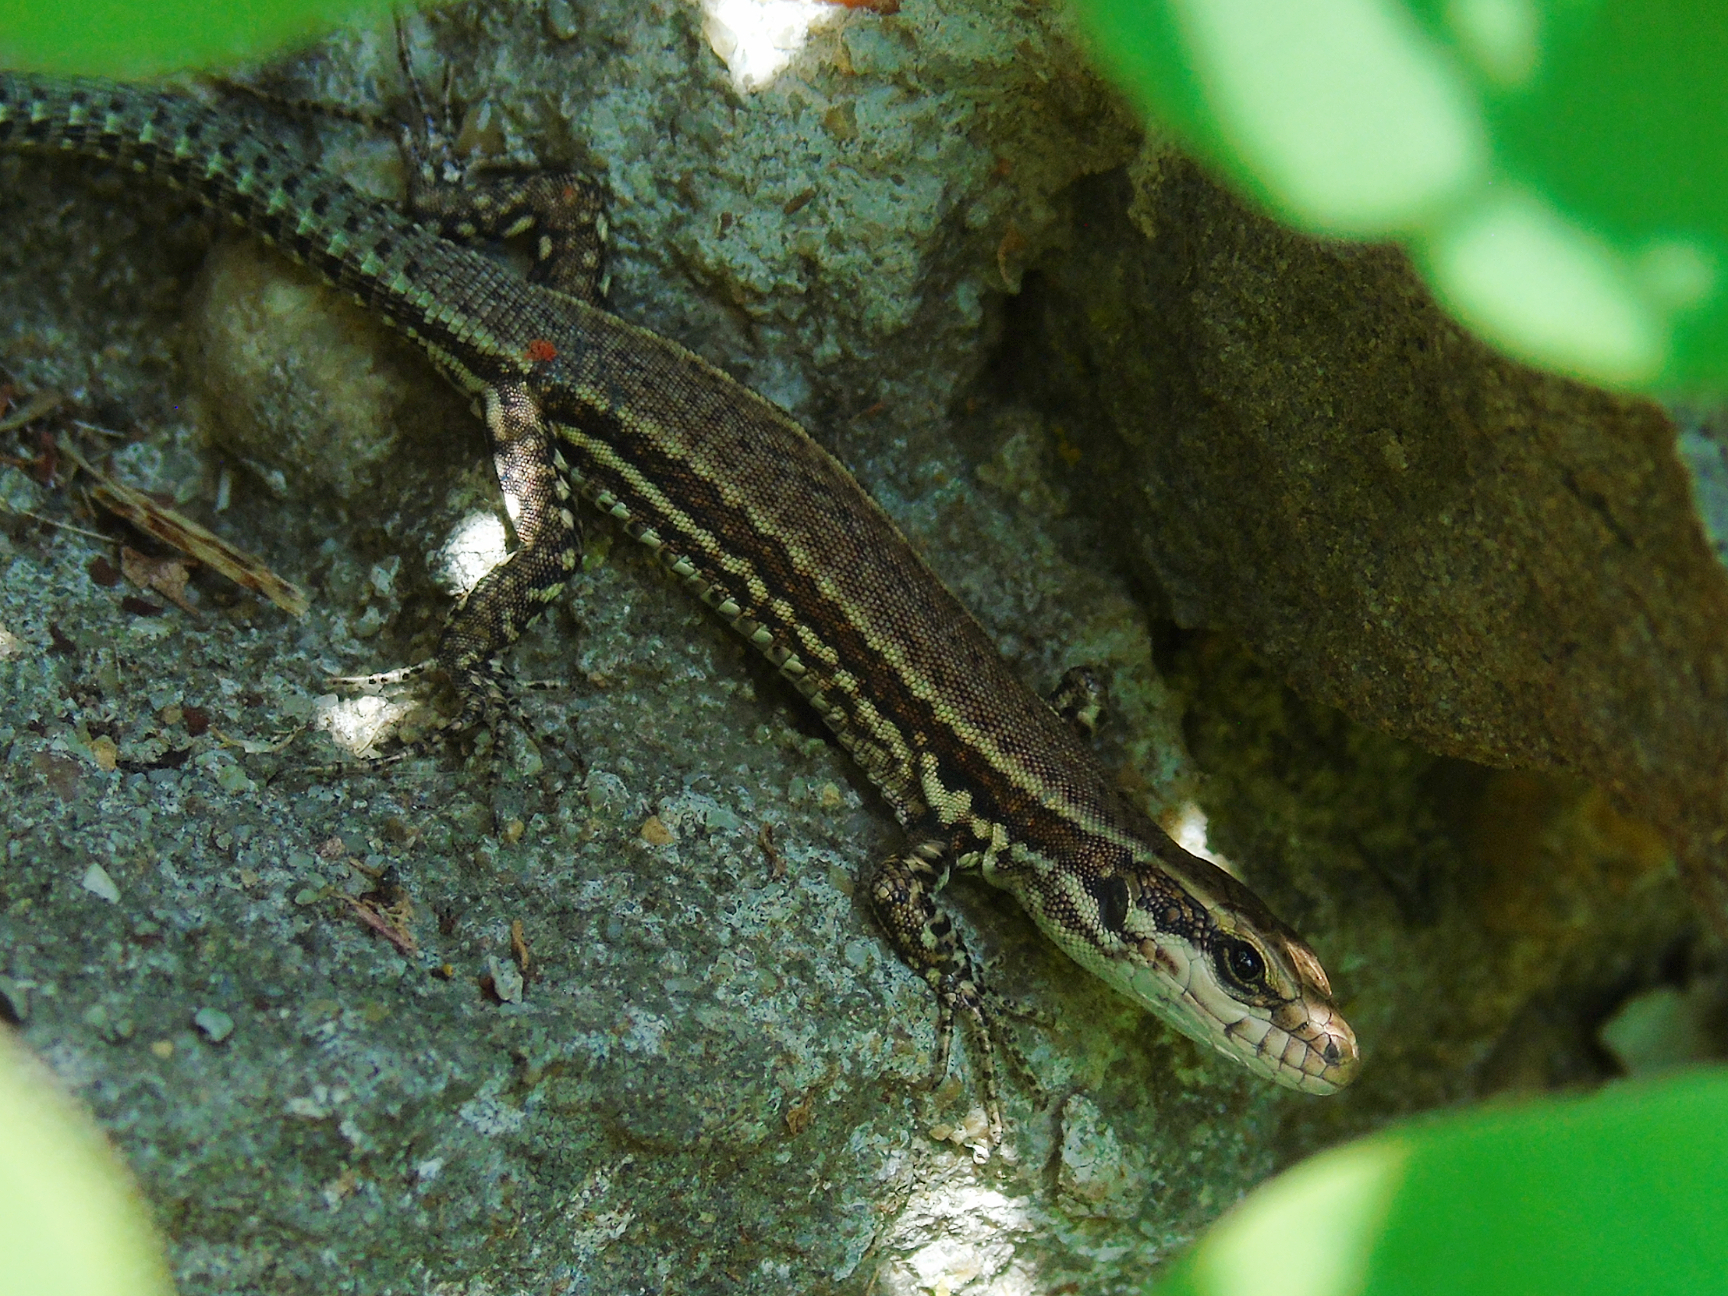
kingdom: Animalia
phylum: Chordata
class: Squamata
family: Lacertidae
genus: Podarcis
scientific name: Podarcis muralis
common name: Common wall lizard
